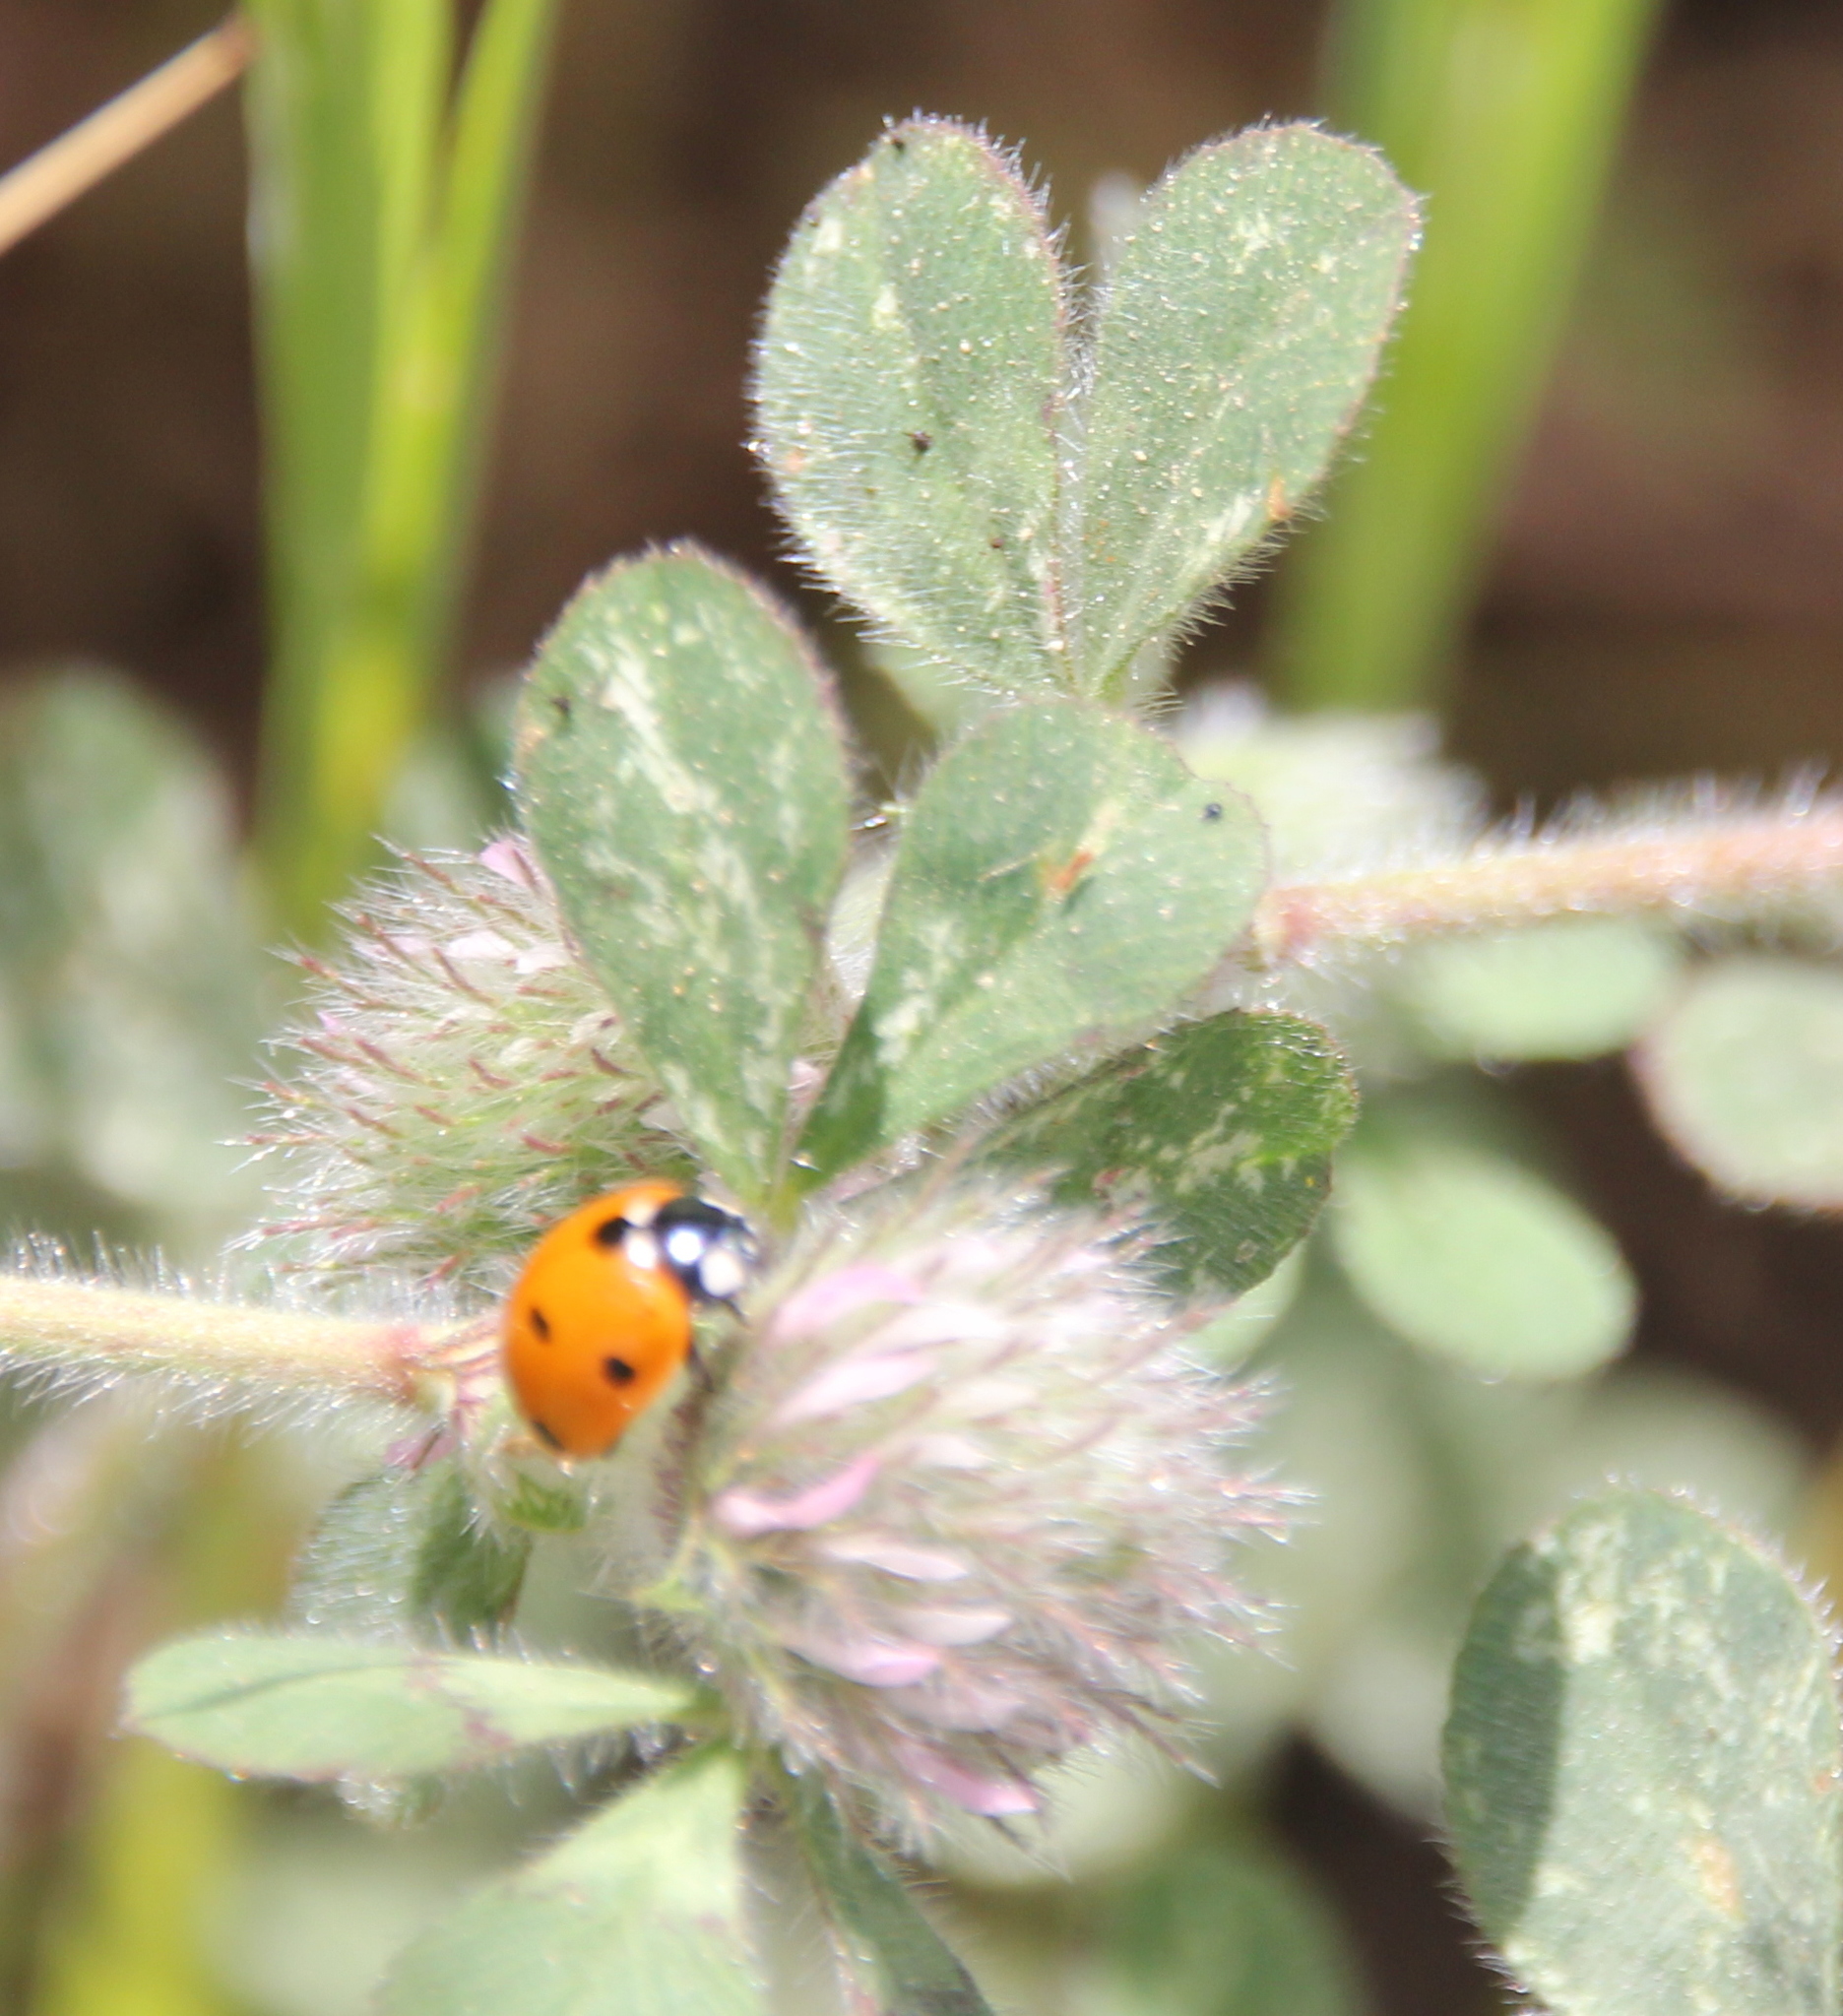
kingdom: Animalia
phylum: Arthropoda
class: Insecta
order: Coleoptera
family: Coccinellidae
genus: Coccinella
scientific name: Coccinella septempunctata
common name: Sevenspotted lady beetle
